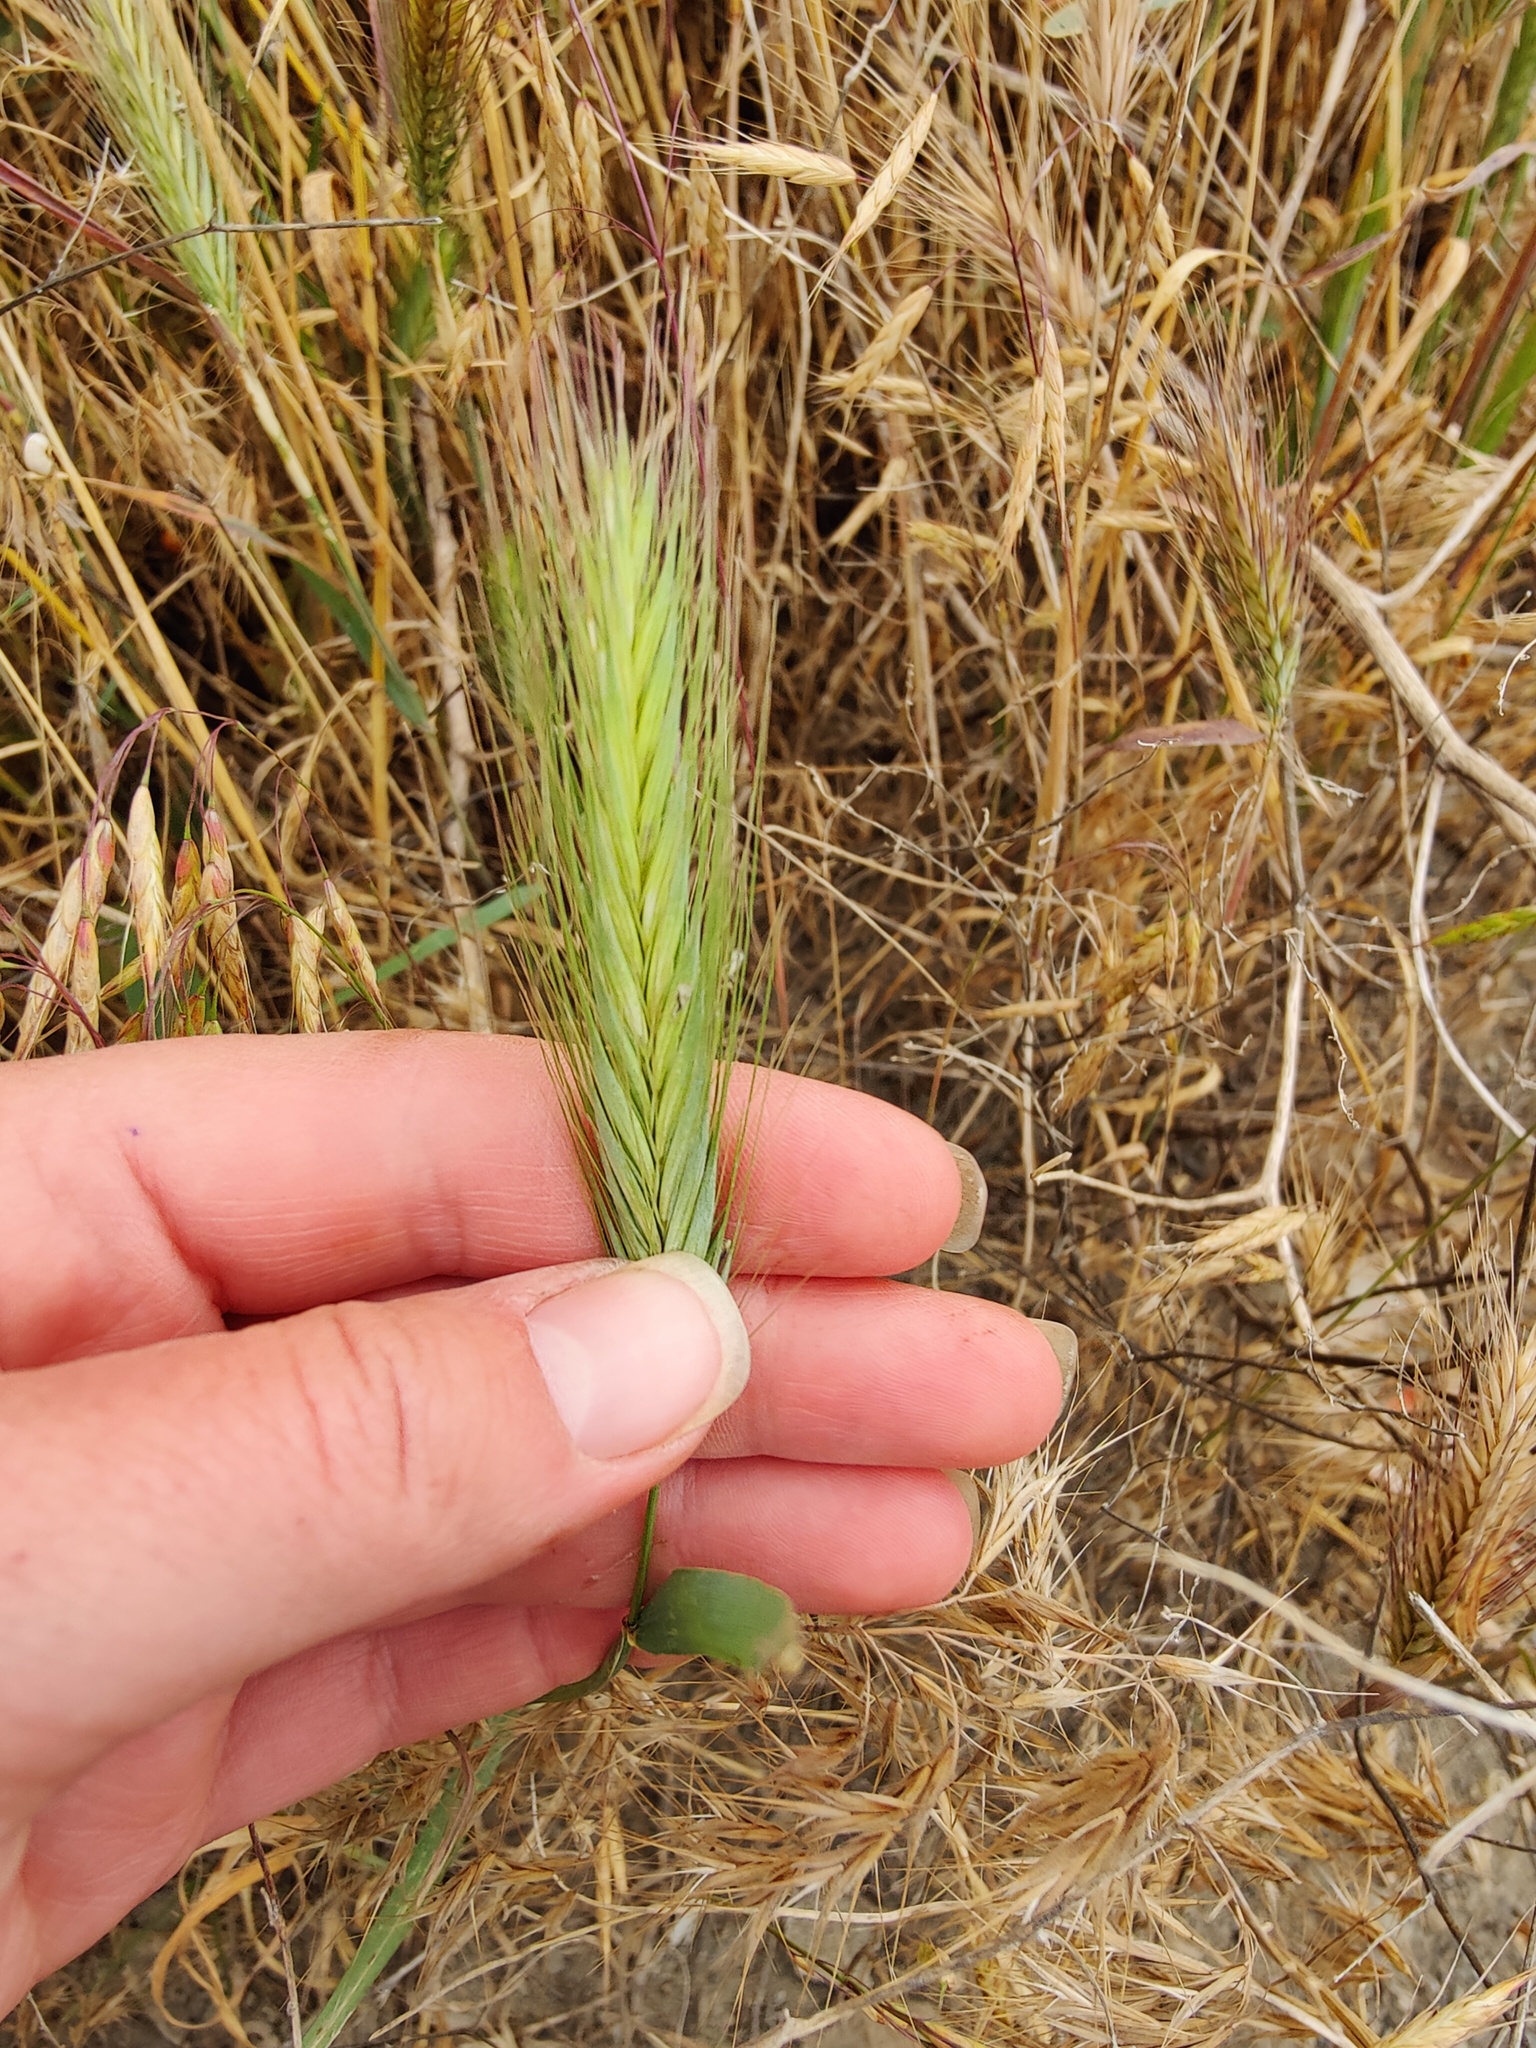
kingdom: Plantae
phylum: Tracheophyta
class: Liliopsida
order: Poales
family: Poaceae
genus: Hordeum
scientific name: Hordeum murinum
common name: Wall barley
